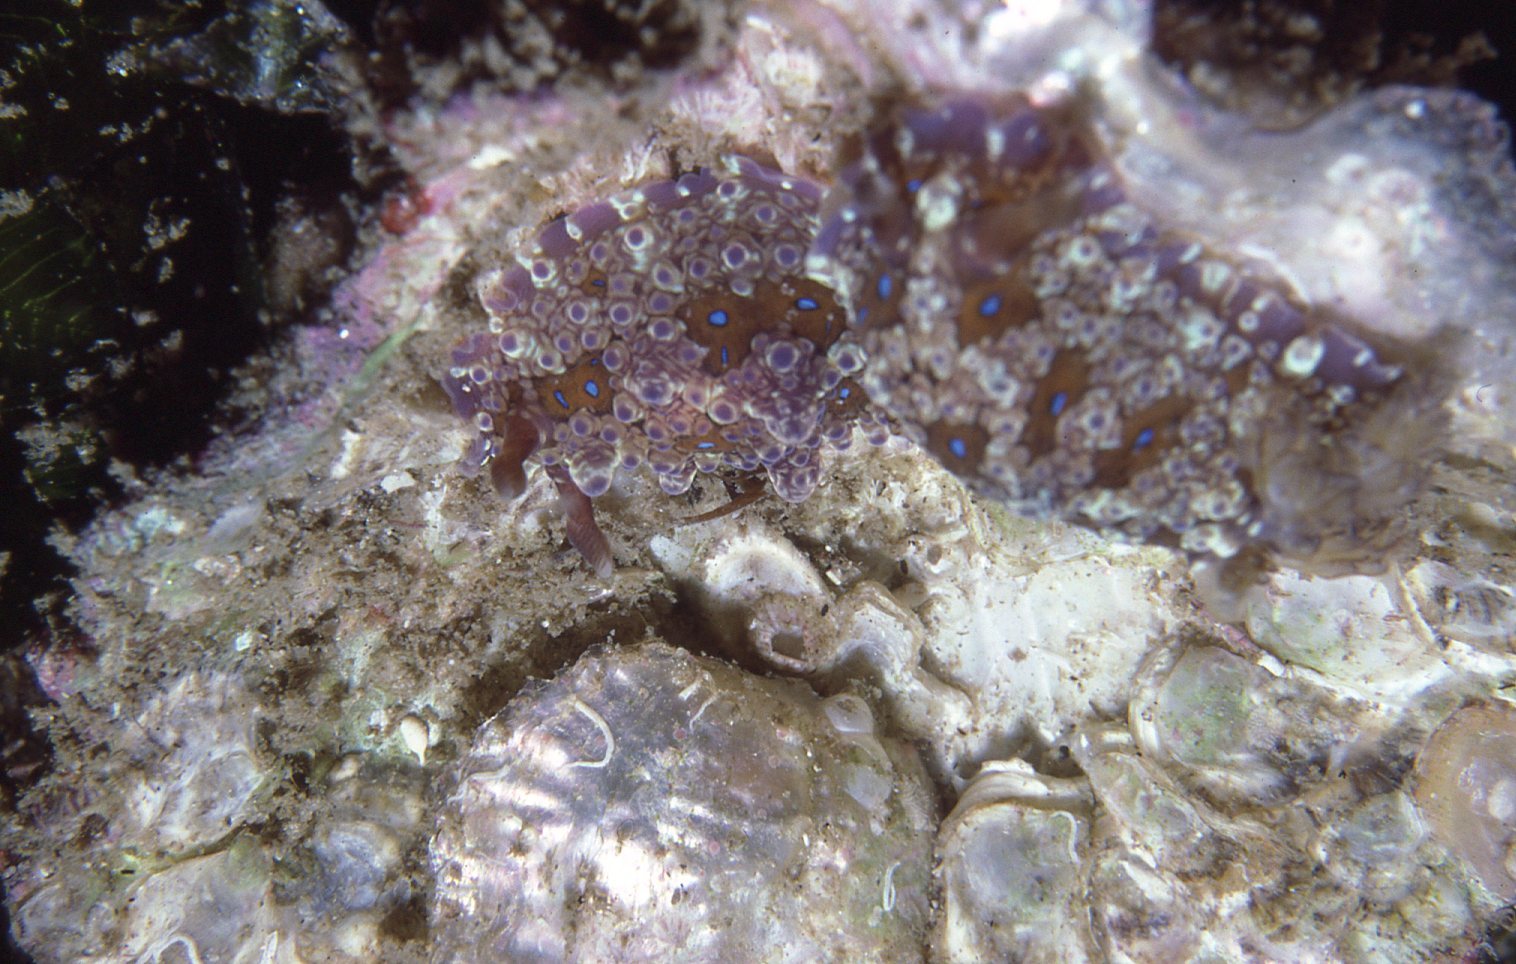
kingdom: Animalia
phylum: Mollusca
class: Gastropoda
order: Nudibranchia
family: Dendrodorididae
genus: Dendrodoris
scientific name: Dendrodoris krusensternii
